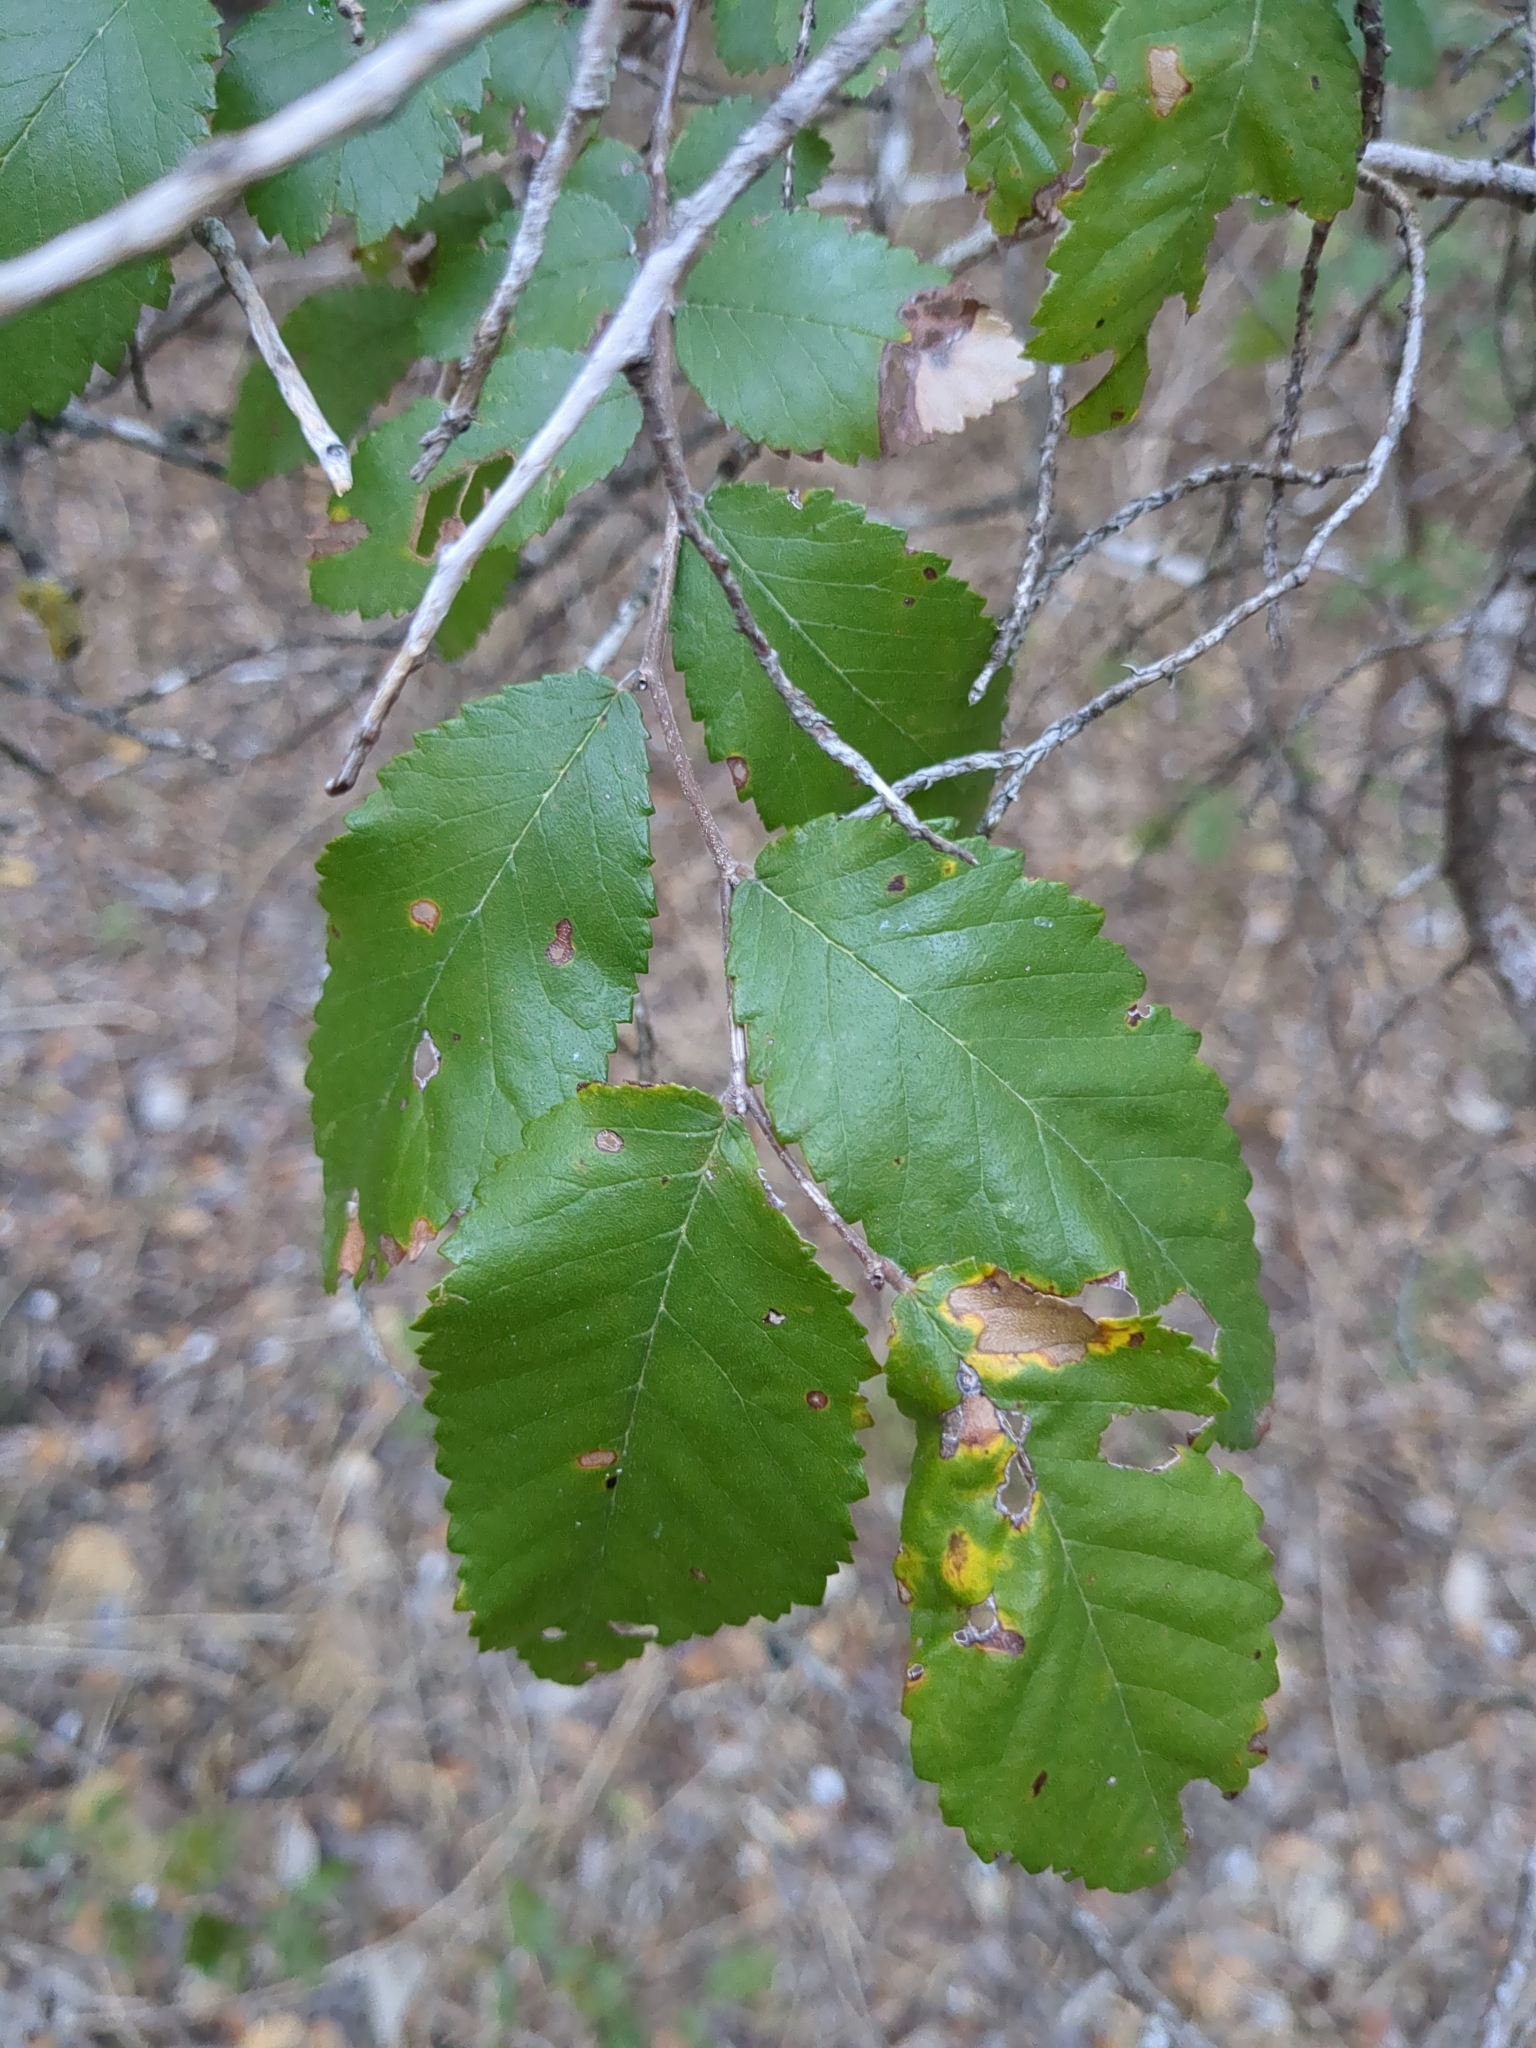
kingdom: Plantae
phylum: Tracheophyta
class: Magnoliopsida
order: Rosales
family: Ulmaceae
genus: Ulmus
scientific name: Ulmus crassifolia
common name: Basket elm
